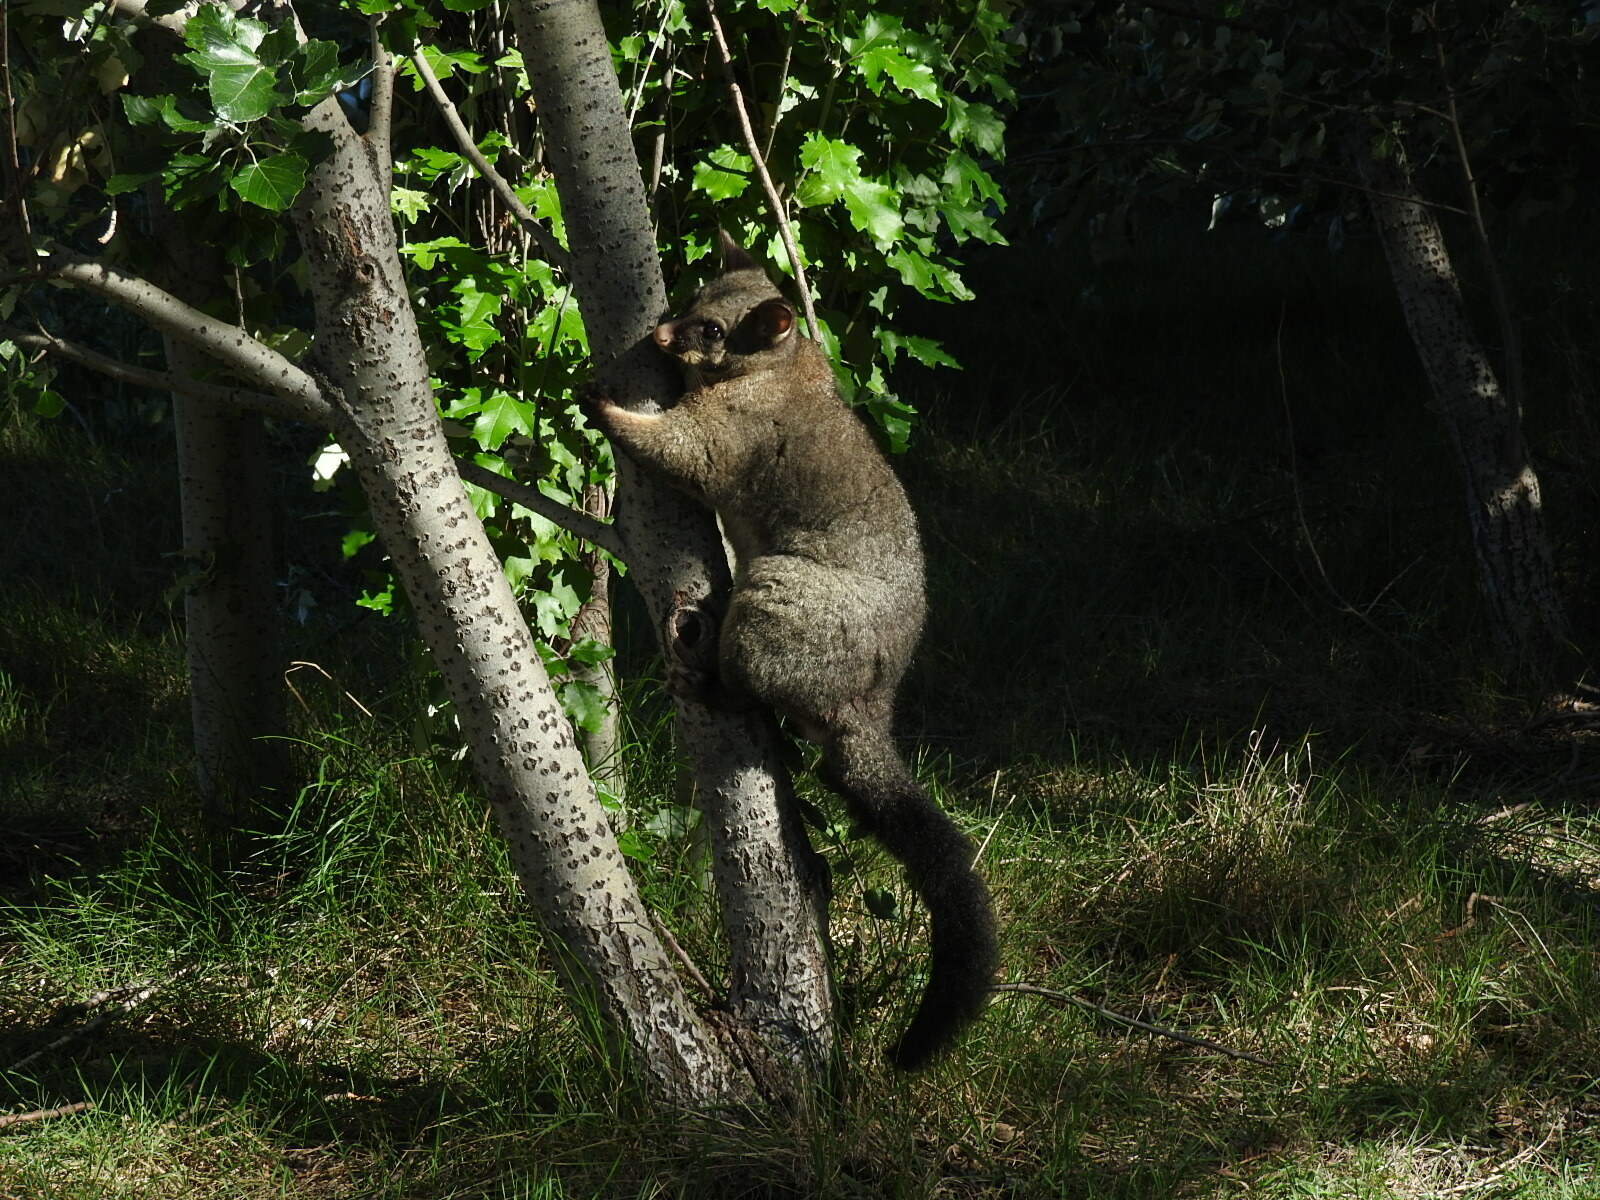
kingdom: Animalia
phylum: Chordata
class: Mammalia
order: Diprotodontia
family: Phalangeridae
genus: Trichosurus
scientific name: Trichosurus vulpecula
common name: Common brushtail
